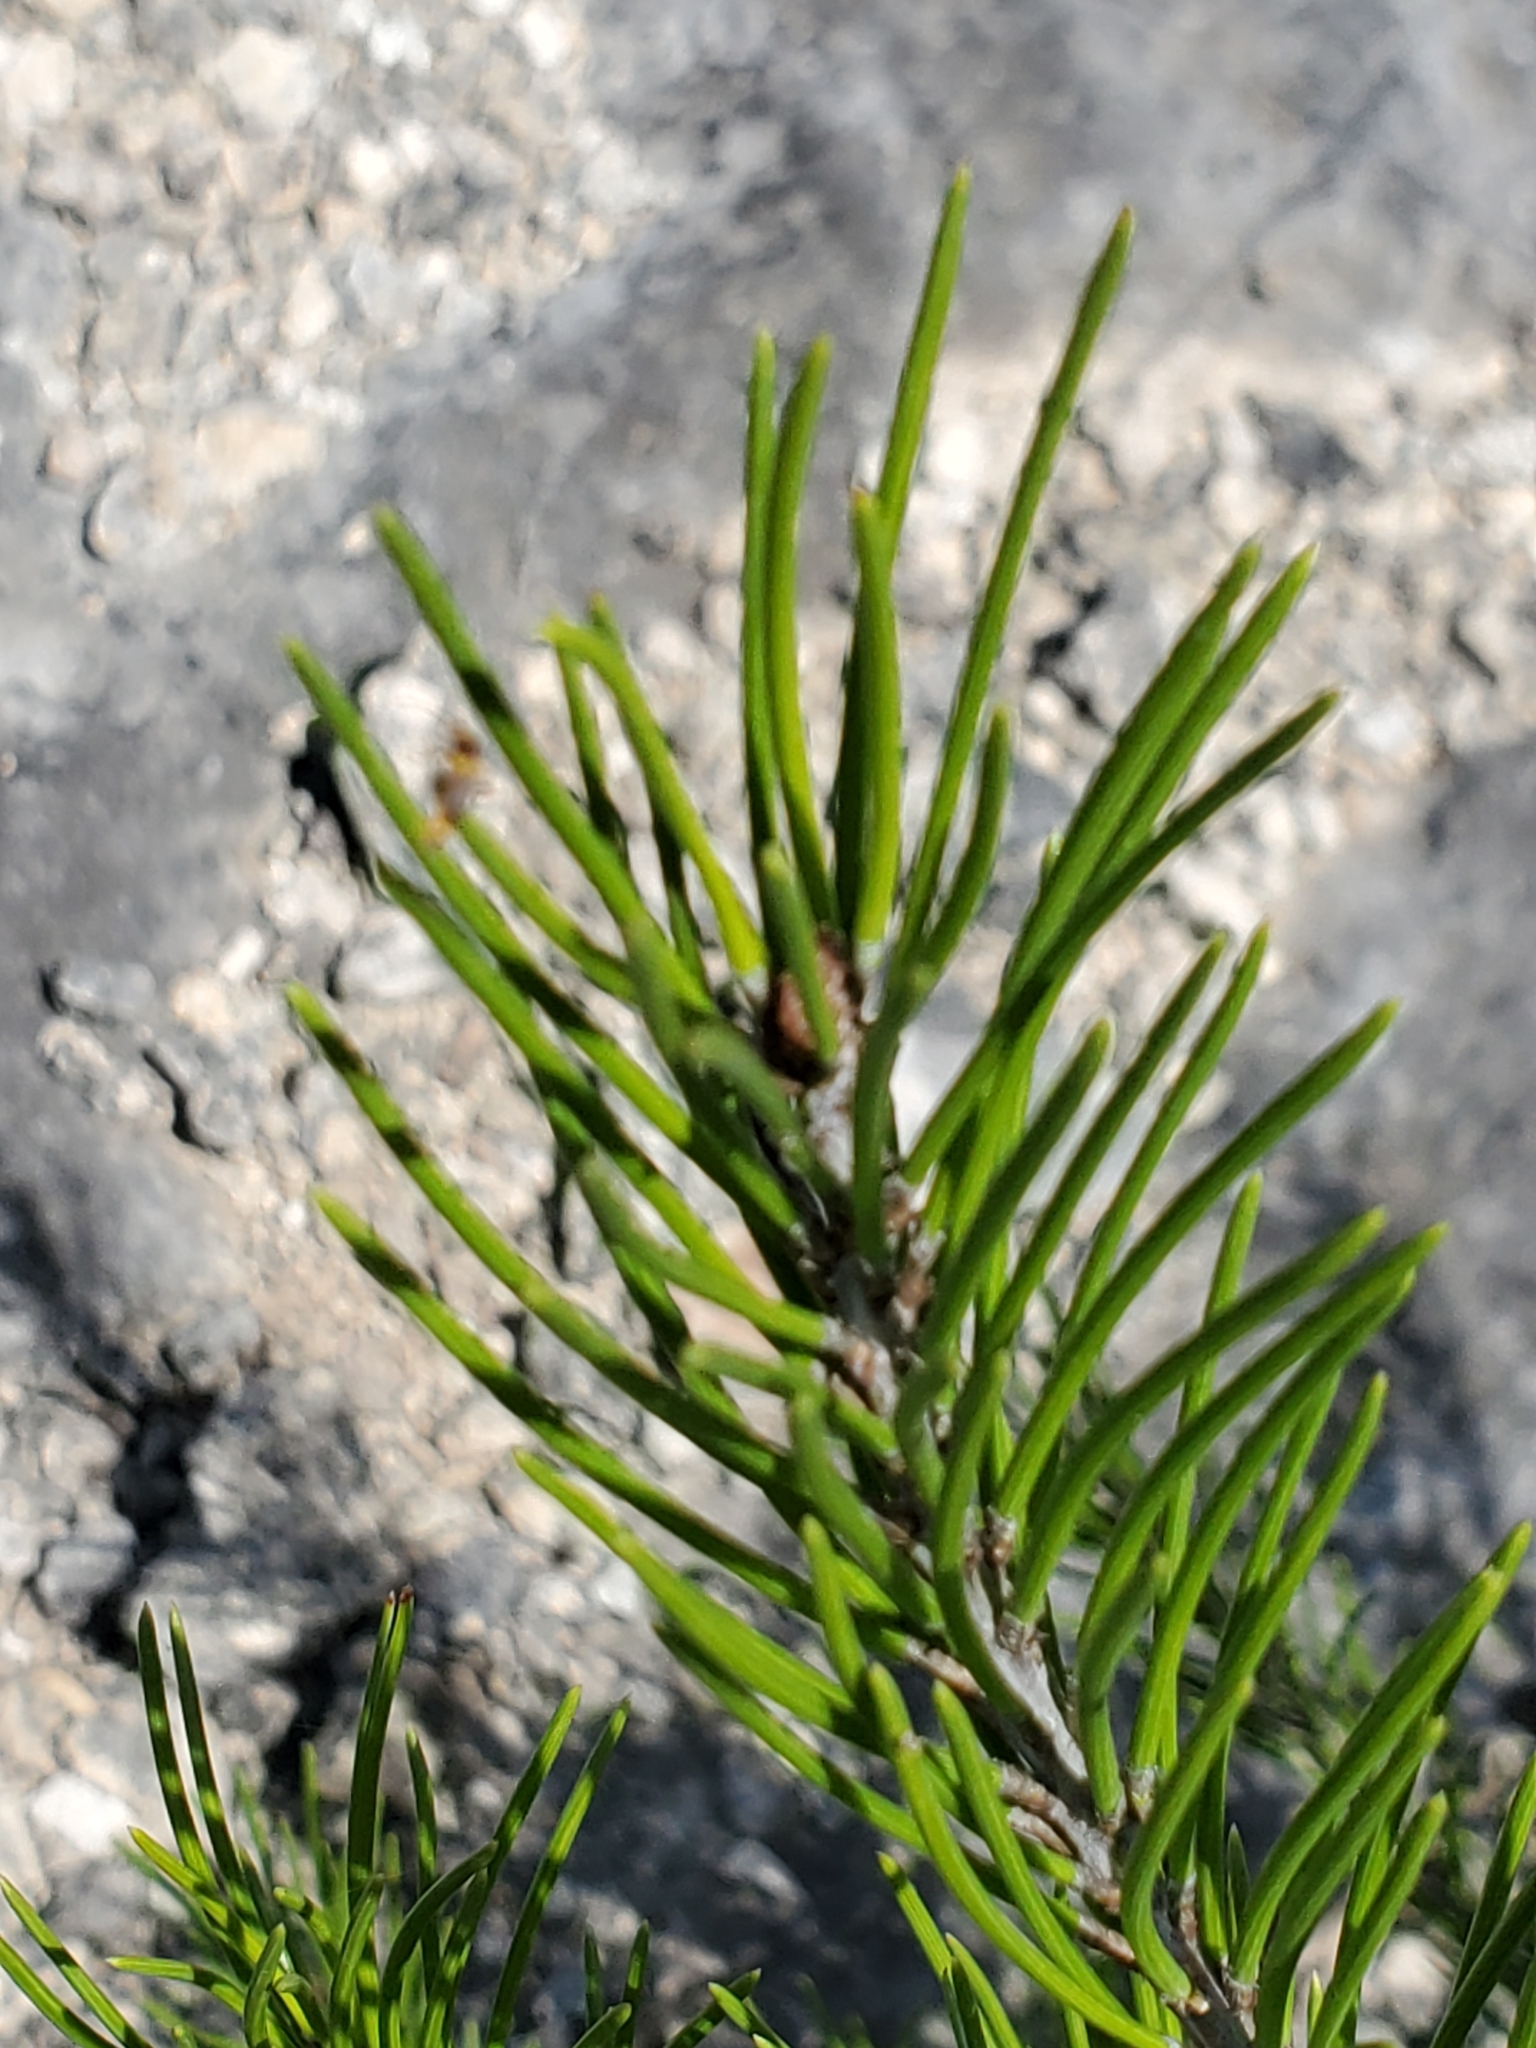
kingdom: Plantae
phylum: Tracheophyta
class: Pinopsida
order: Pinales
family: Pinaceae
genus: Pinus
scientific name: Pinus remota
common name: Nut pine
